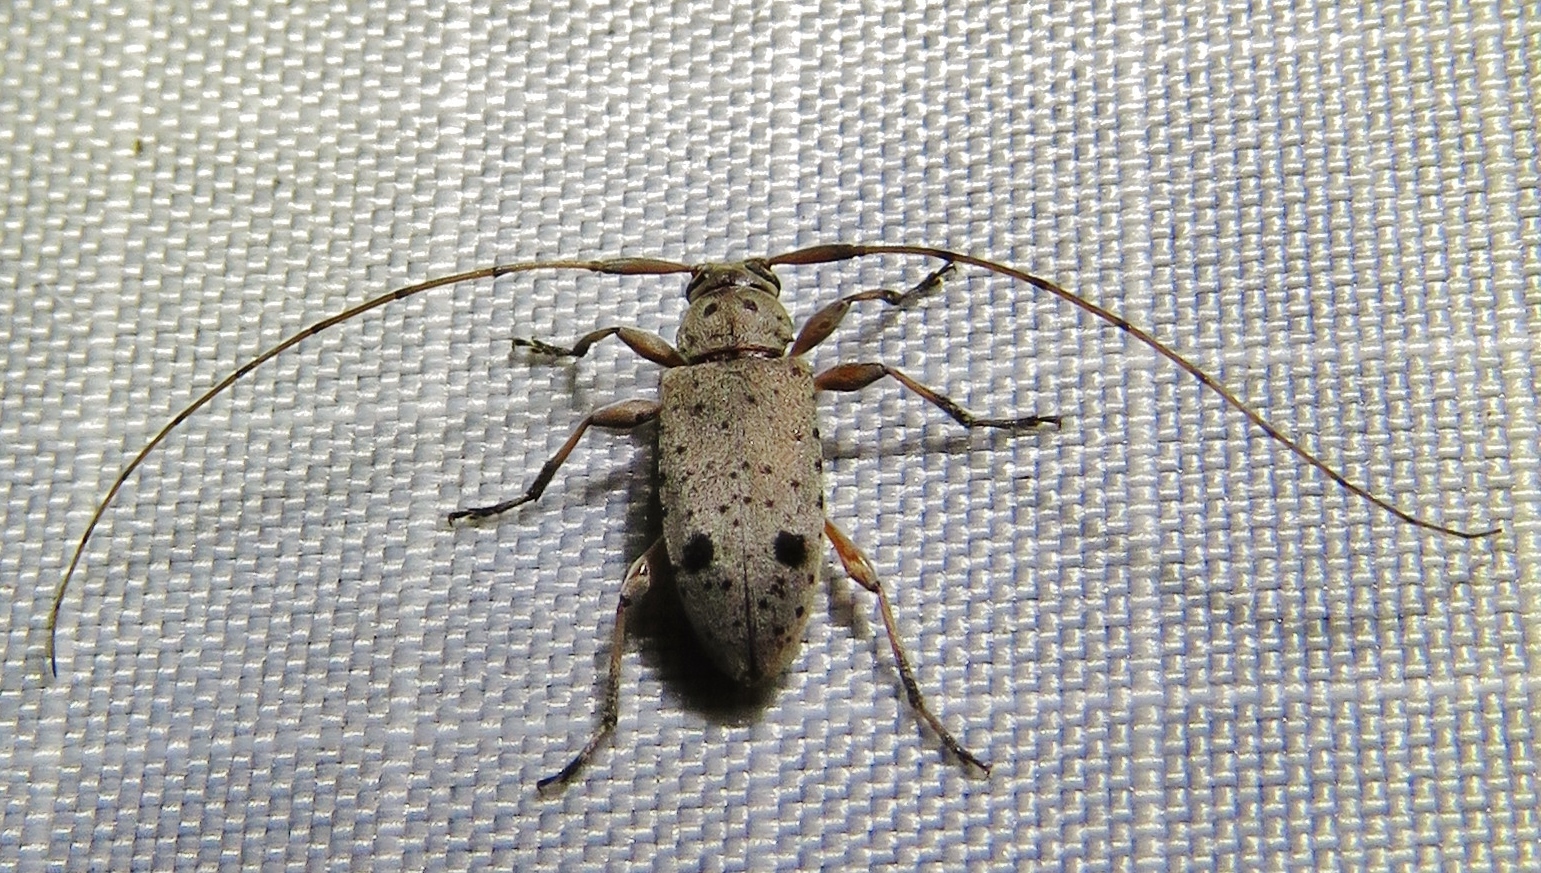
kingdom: Animalia
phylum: Arthropoda
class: Insecta
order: Coleoptera
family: Cerambycidae
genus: Hyperplatys
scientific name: Hyperplatys maculata
